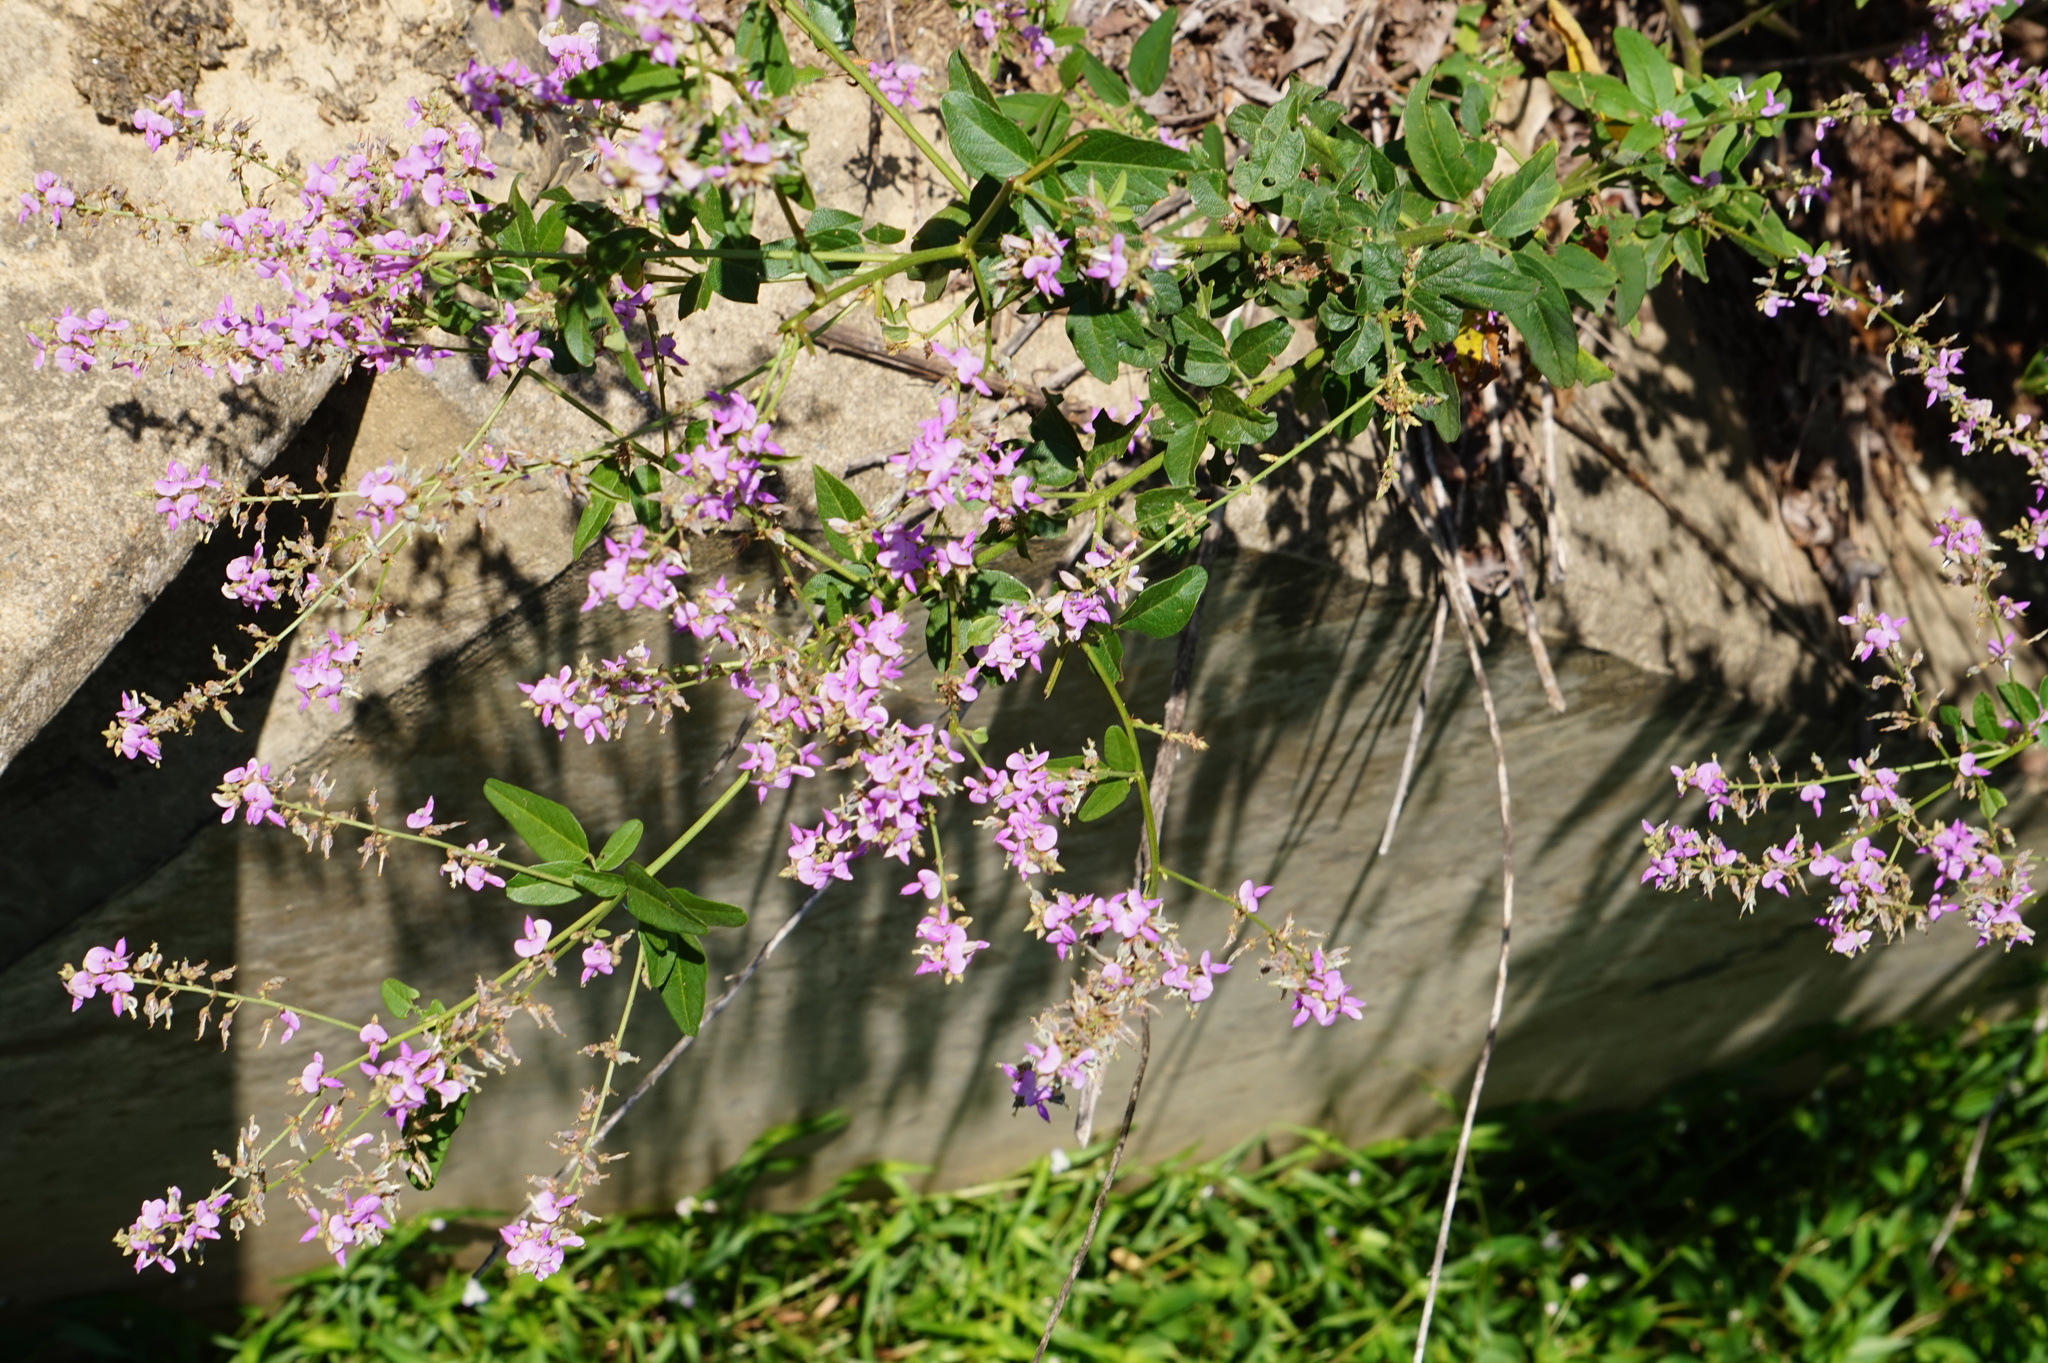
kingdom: Plantae
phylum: Tracheophyta
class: Magnoliopsida
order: Fabales
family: Fabaceae
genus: Desmodium
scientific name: Desmodium glabellum
